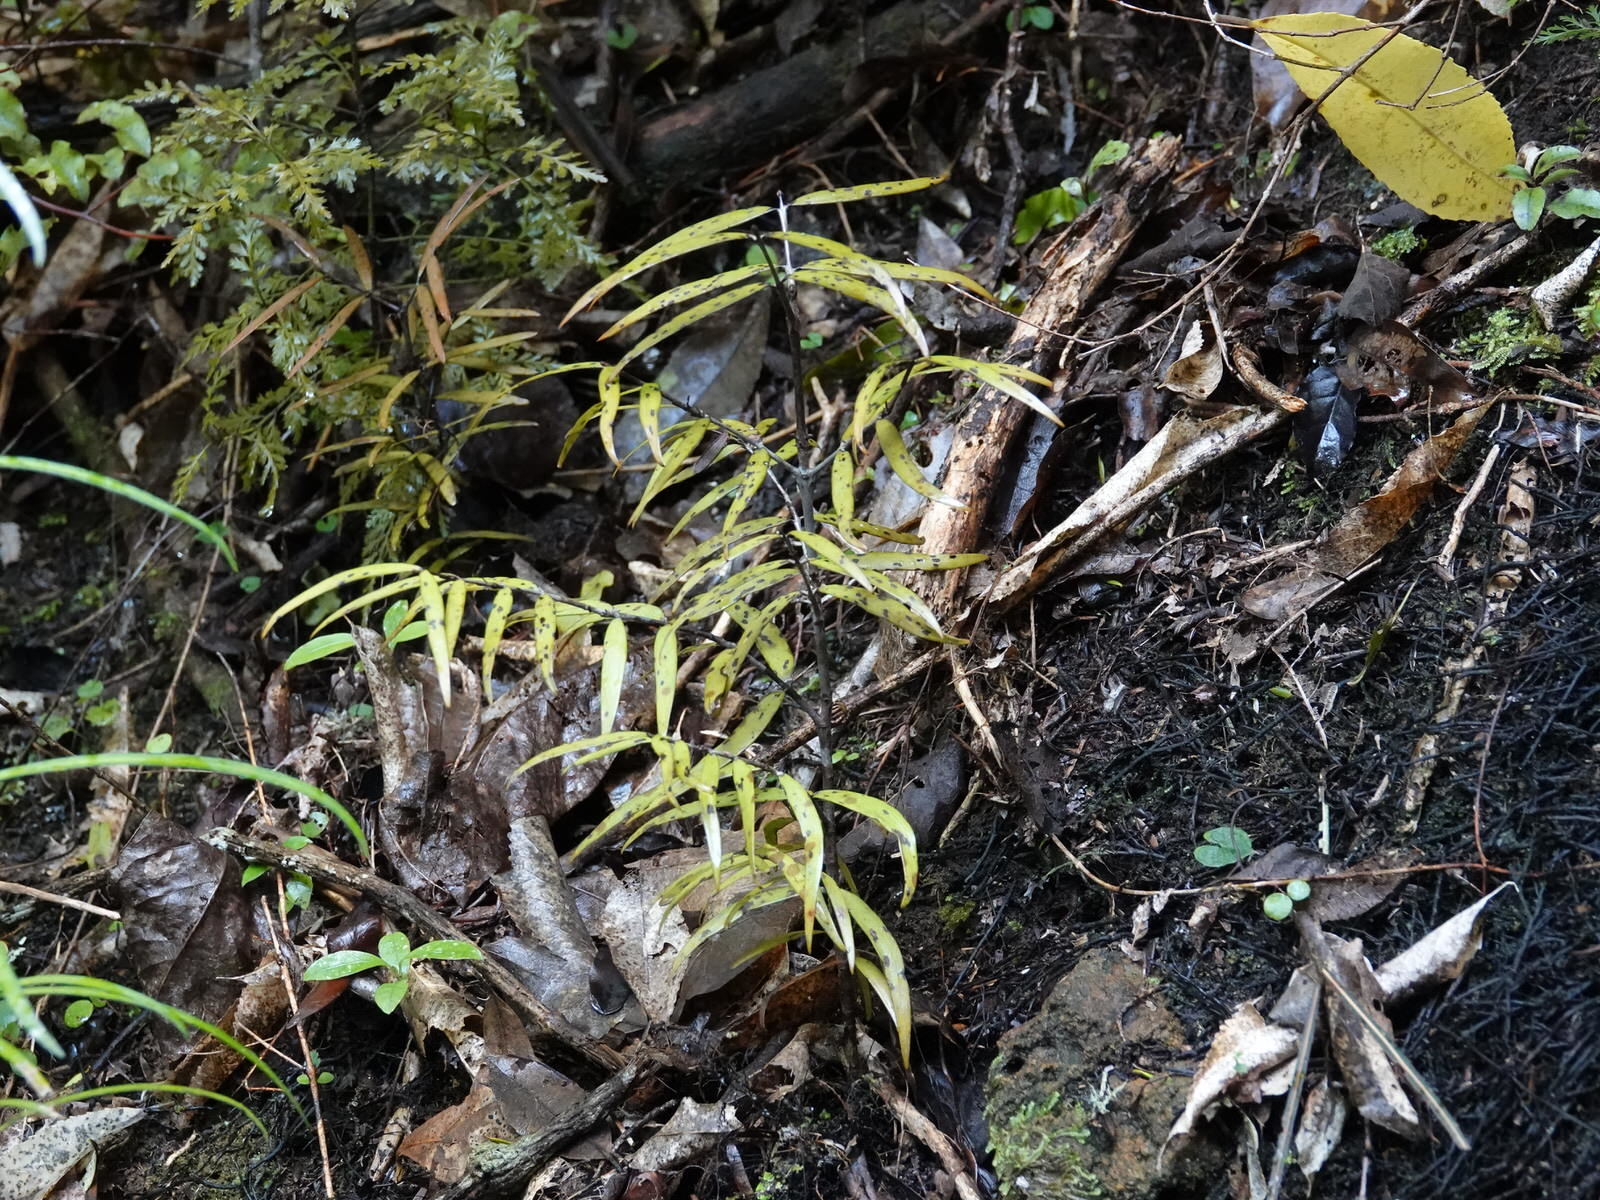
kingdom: Plantae
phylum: Tracheophyta
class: Pinopsida
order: Pinales
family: Araucariaceae
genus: Agathis
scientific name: Agathis australis
